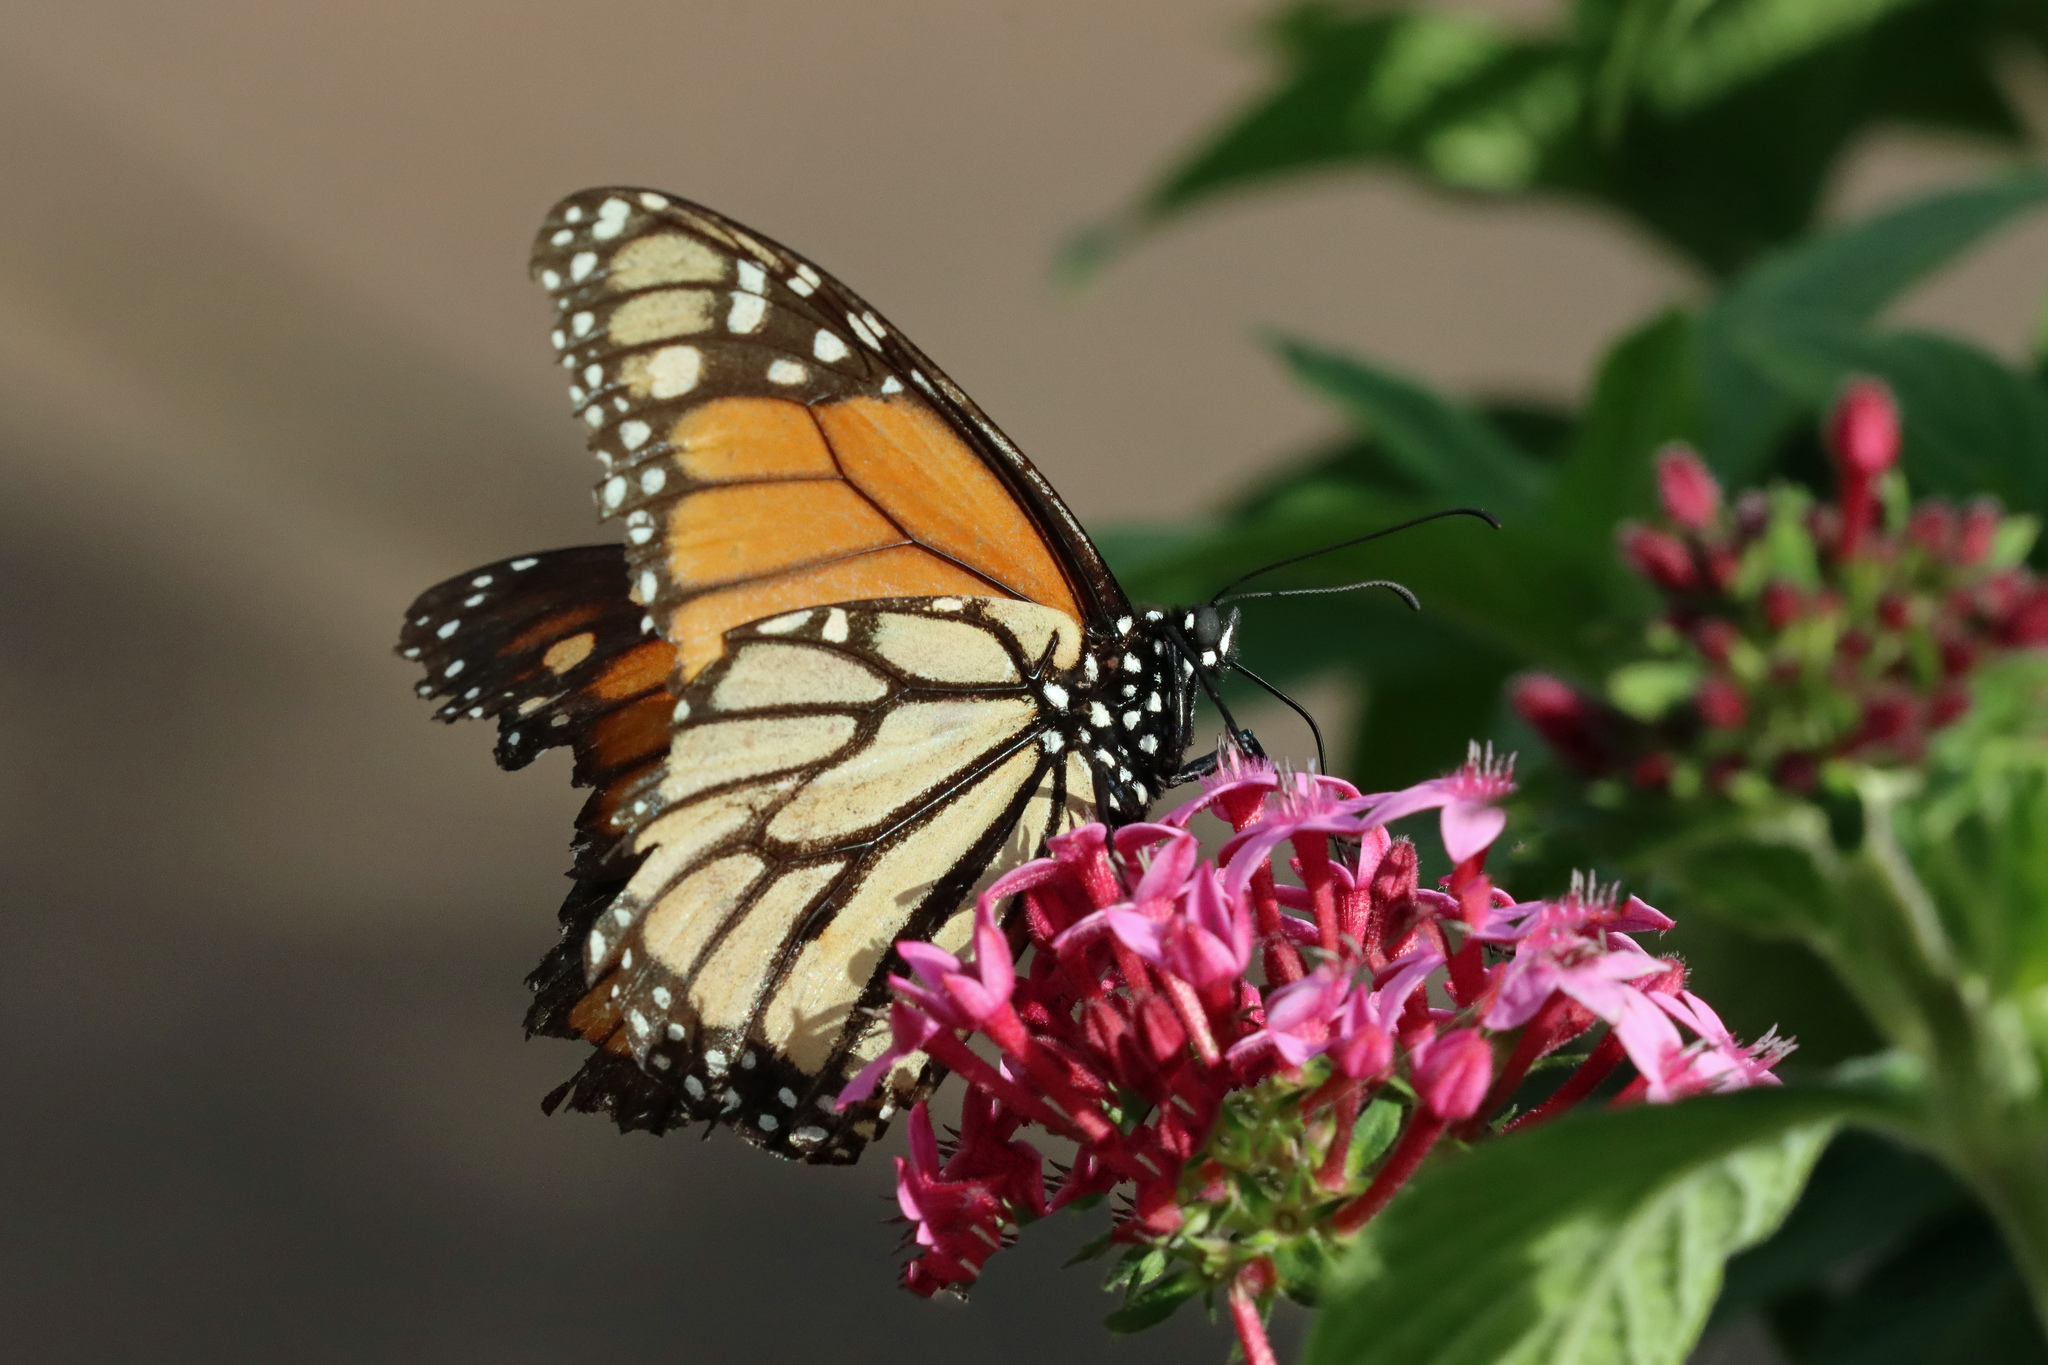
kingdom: Animalia
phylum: Arthropoda
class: Insecta
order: Lepidoptera
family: Nymphalidae
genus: Danaus
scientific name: Danaus plexippus
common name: Monarch
